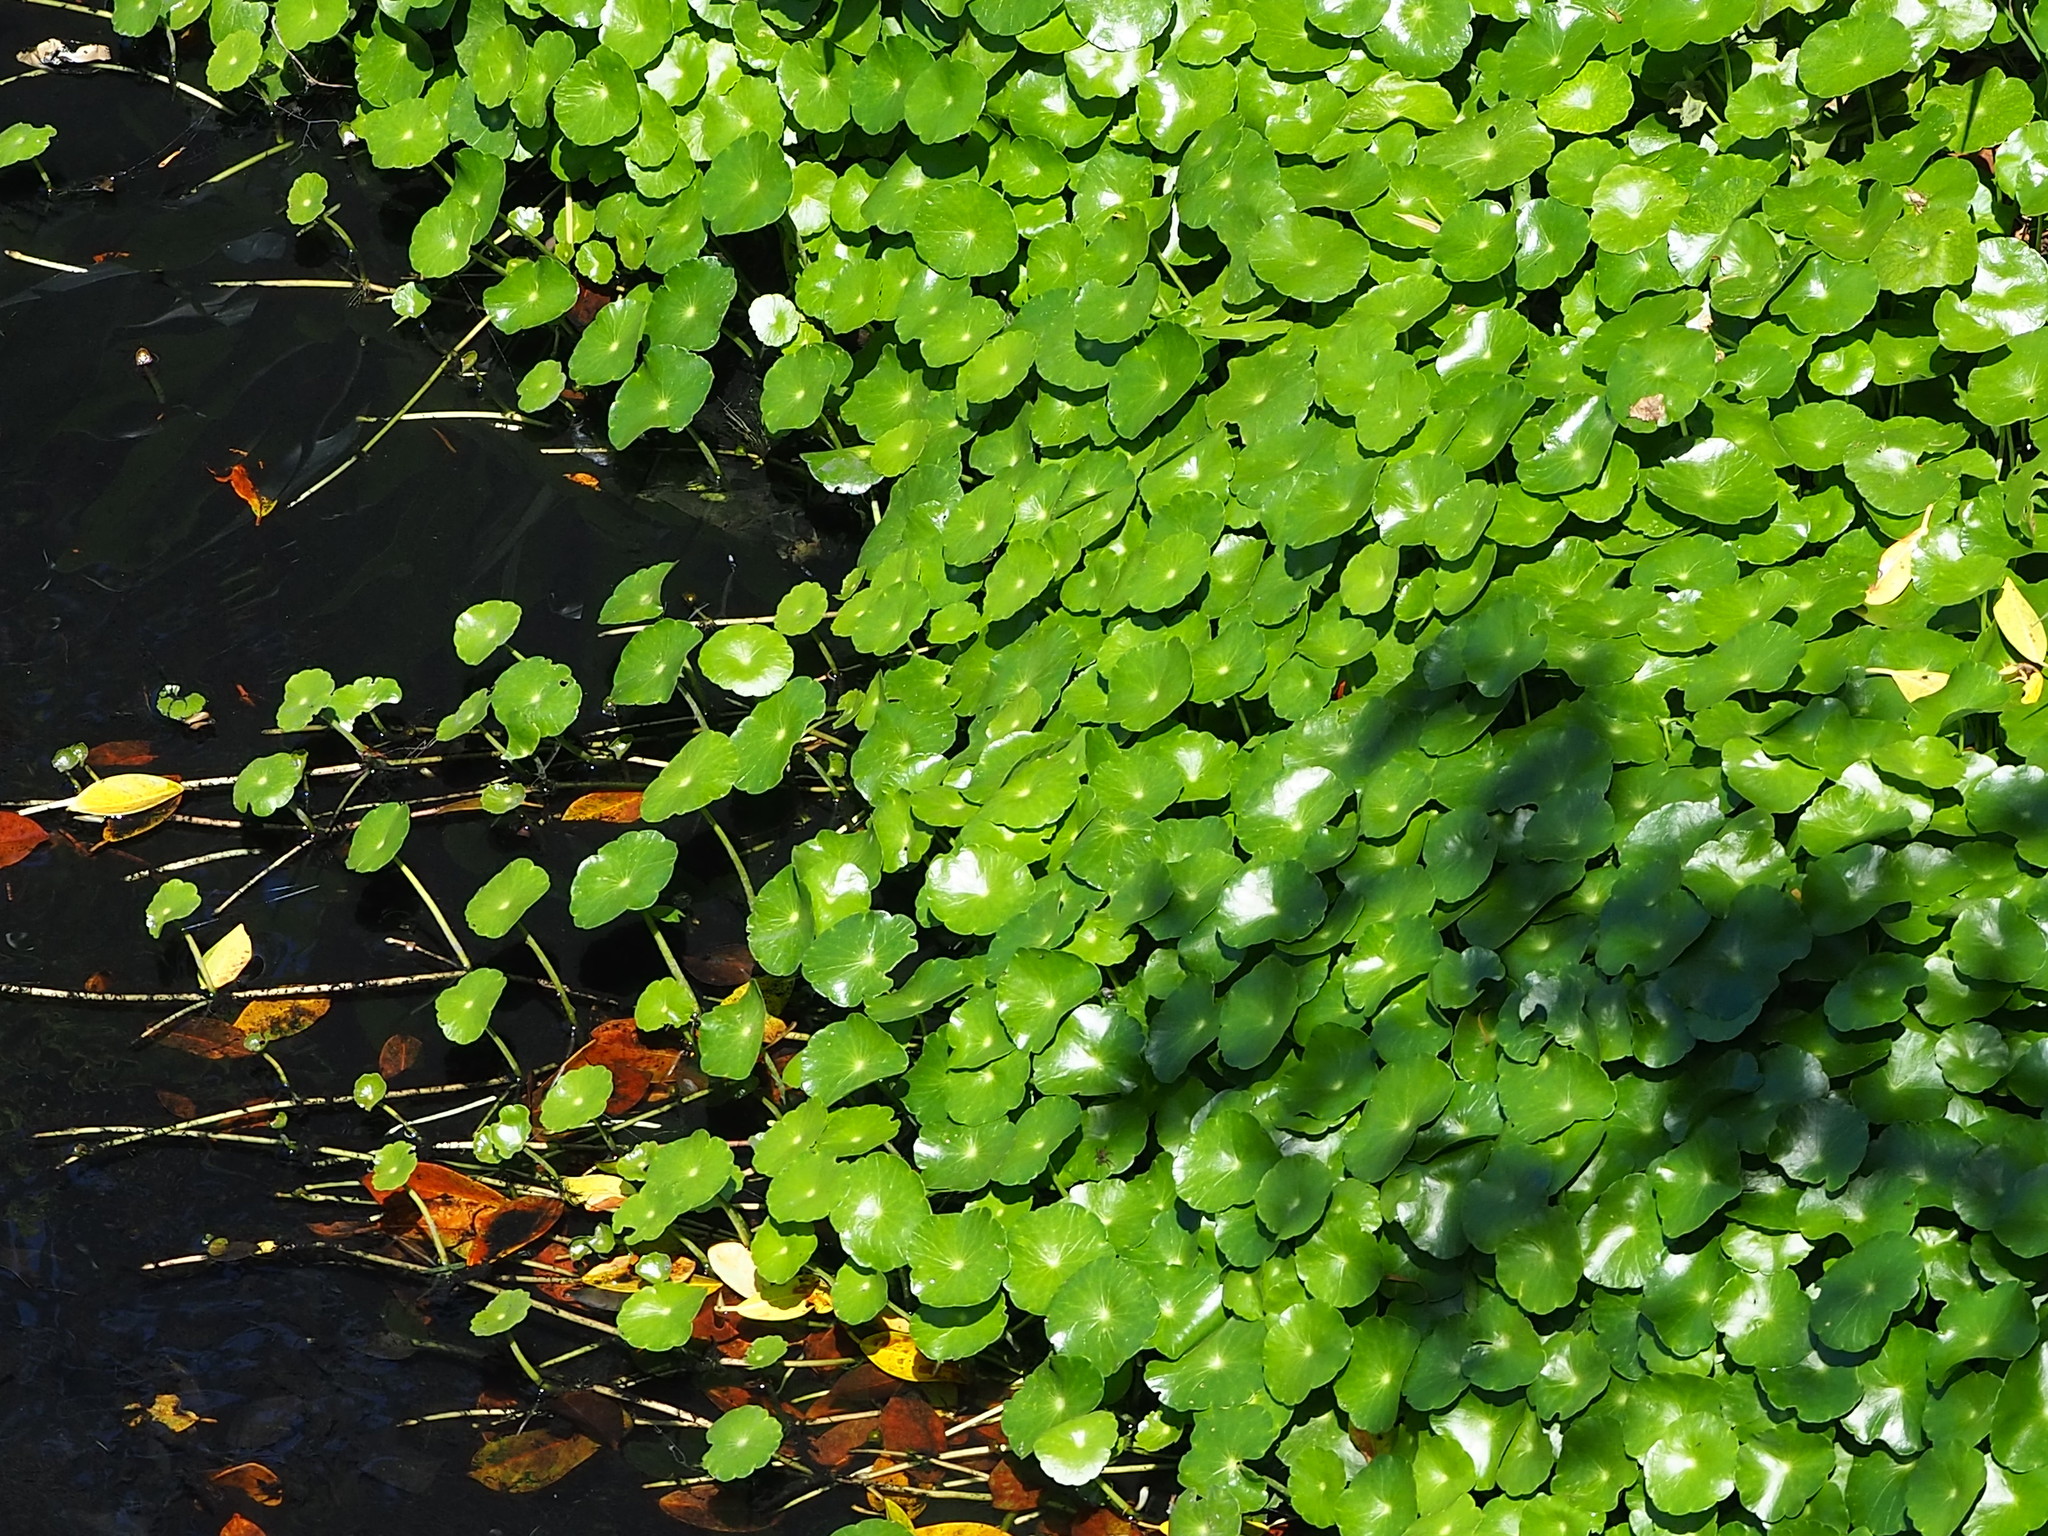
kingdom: Plantae
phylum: Tracheophyta
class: Magnoliopsida
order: Apiales
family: Araliaceae
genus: Hydrocotyle
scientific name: Hydrocotyle verticillata
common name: Whorled marshpennywort
